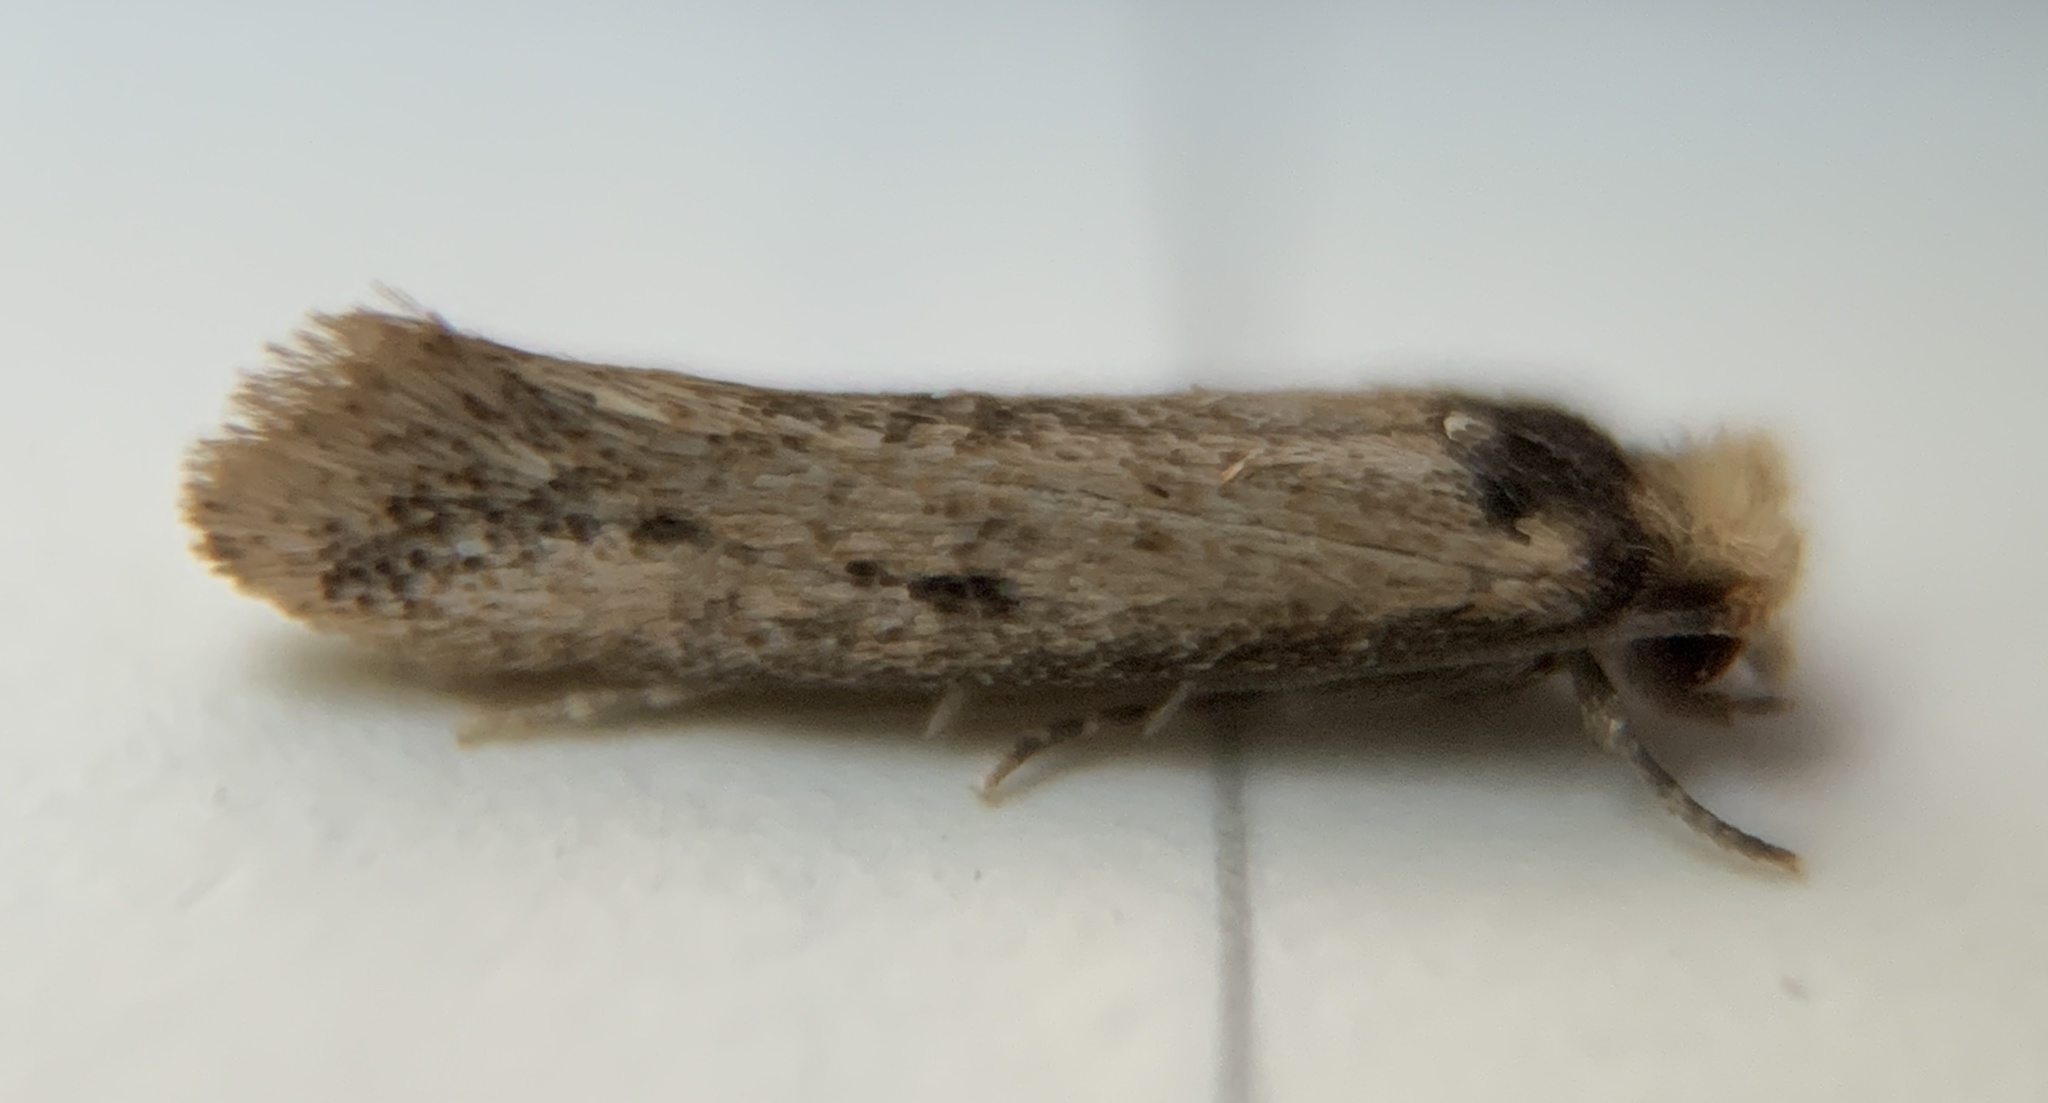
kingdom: Animalia
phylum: Arthropoda
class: Insecta
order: Lepidoptera
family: Meessiidae
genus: Homostinea
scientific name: Homostinea curviliniella
